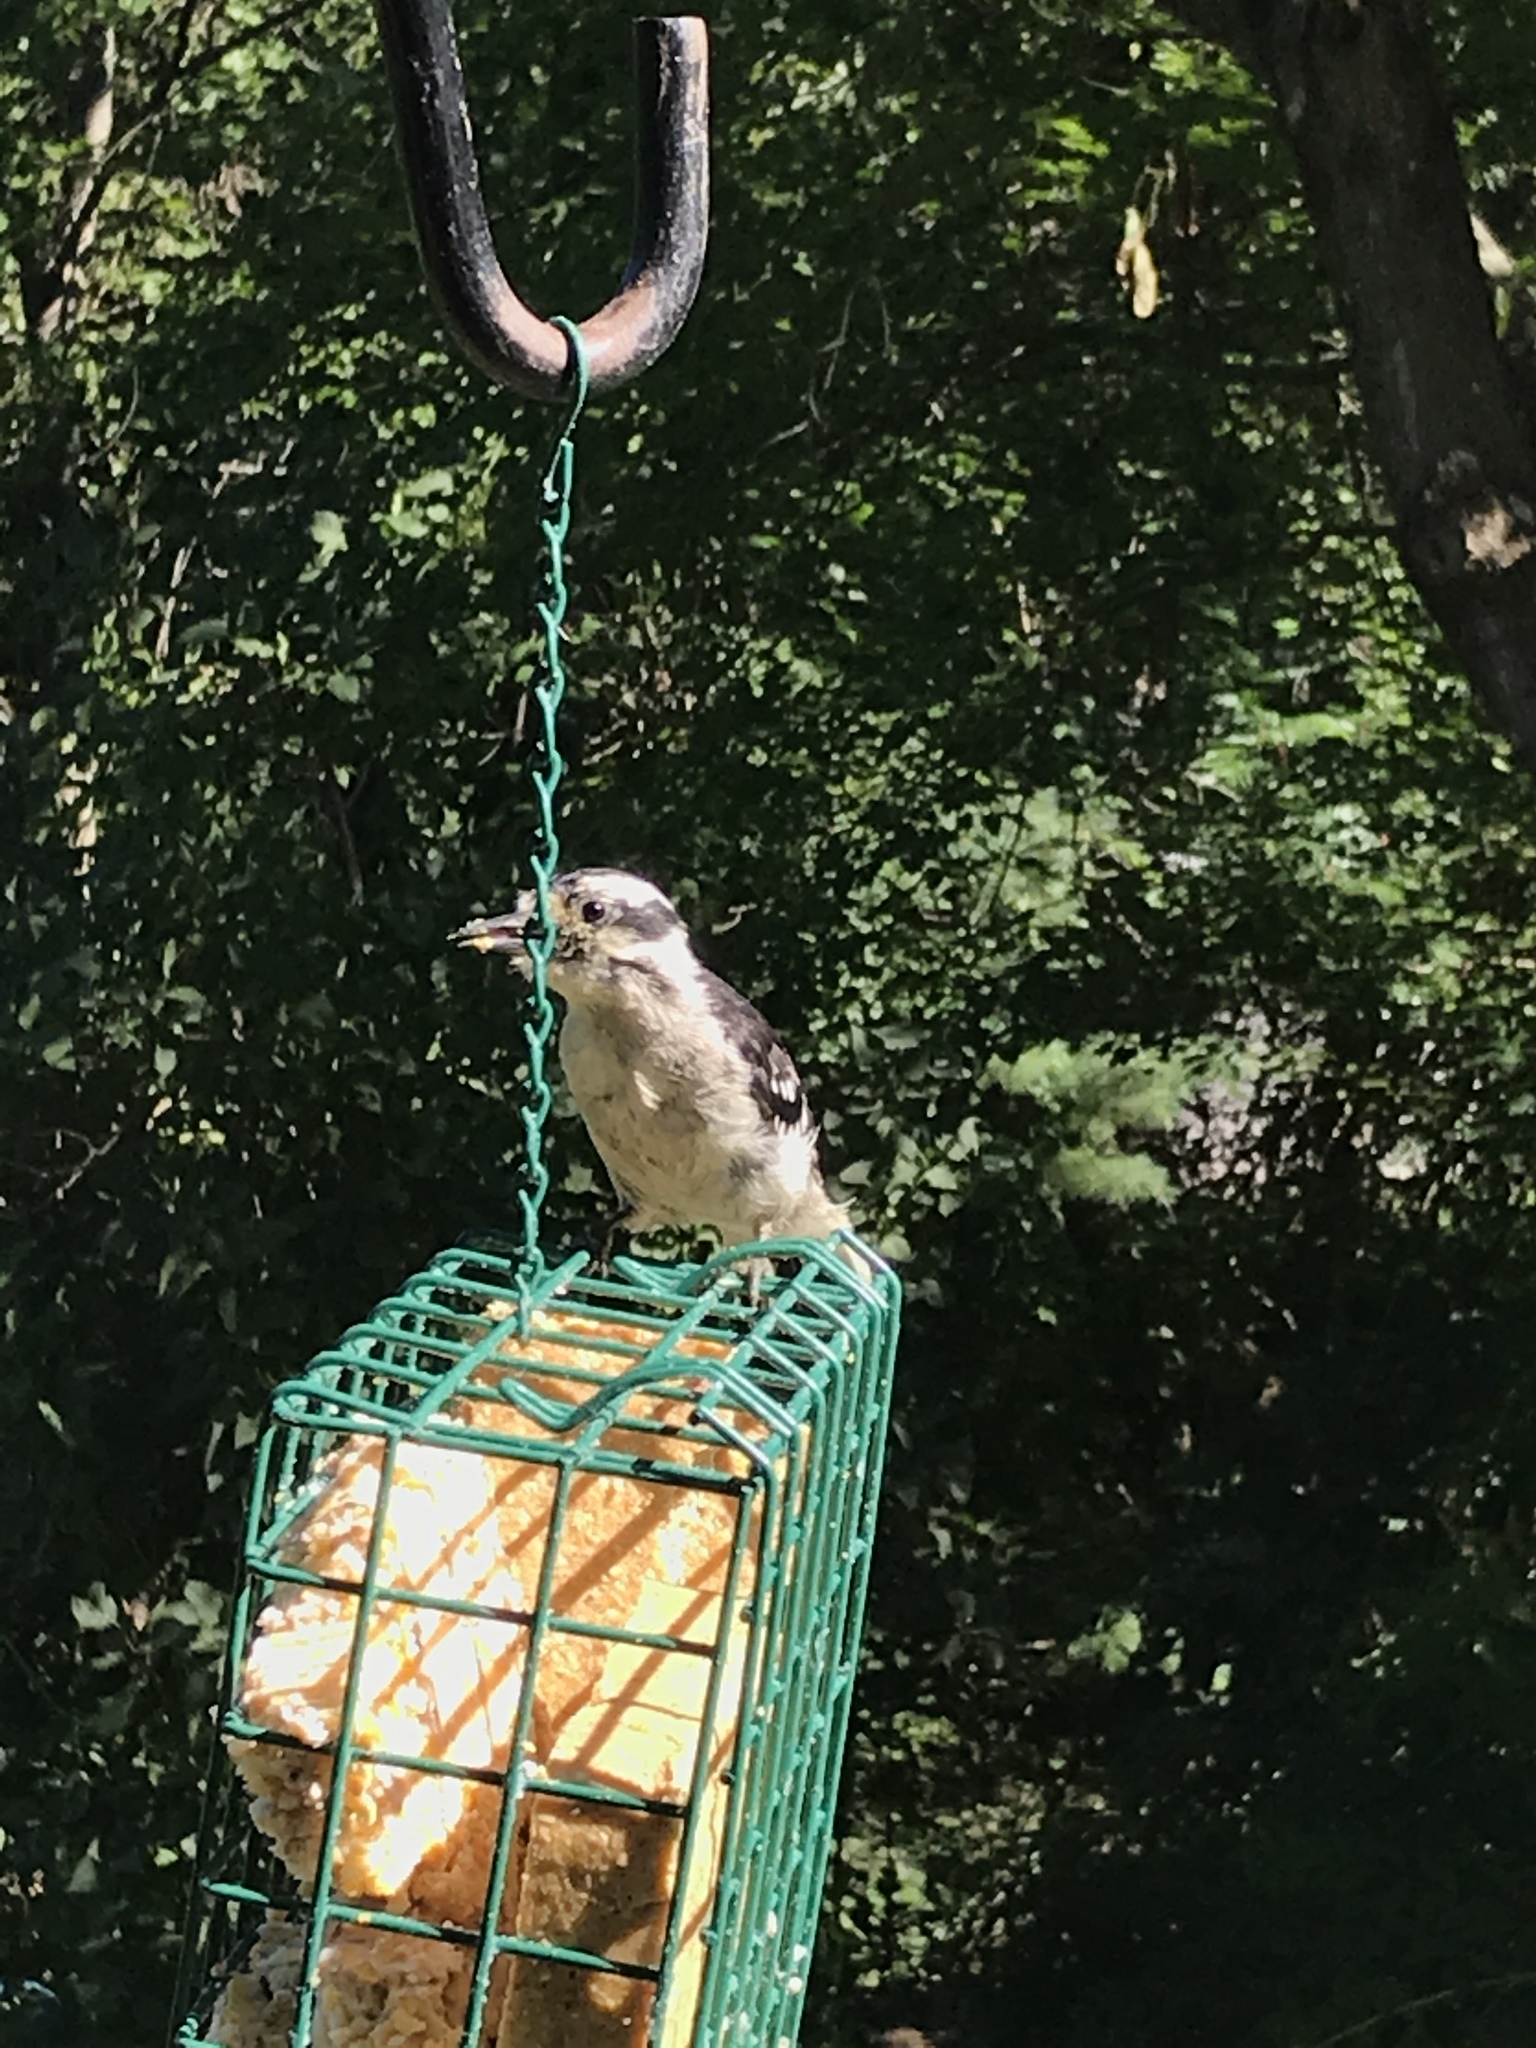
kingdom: Animalia
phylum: Chordata
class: Aves
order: Piciformes
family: Picidae
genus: Leuconotopicus
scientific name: Leuconotopicus villosus
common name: Hairy woodpecker
